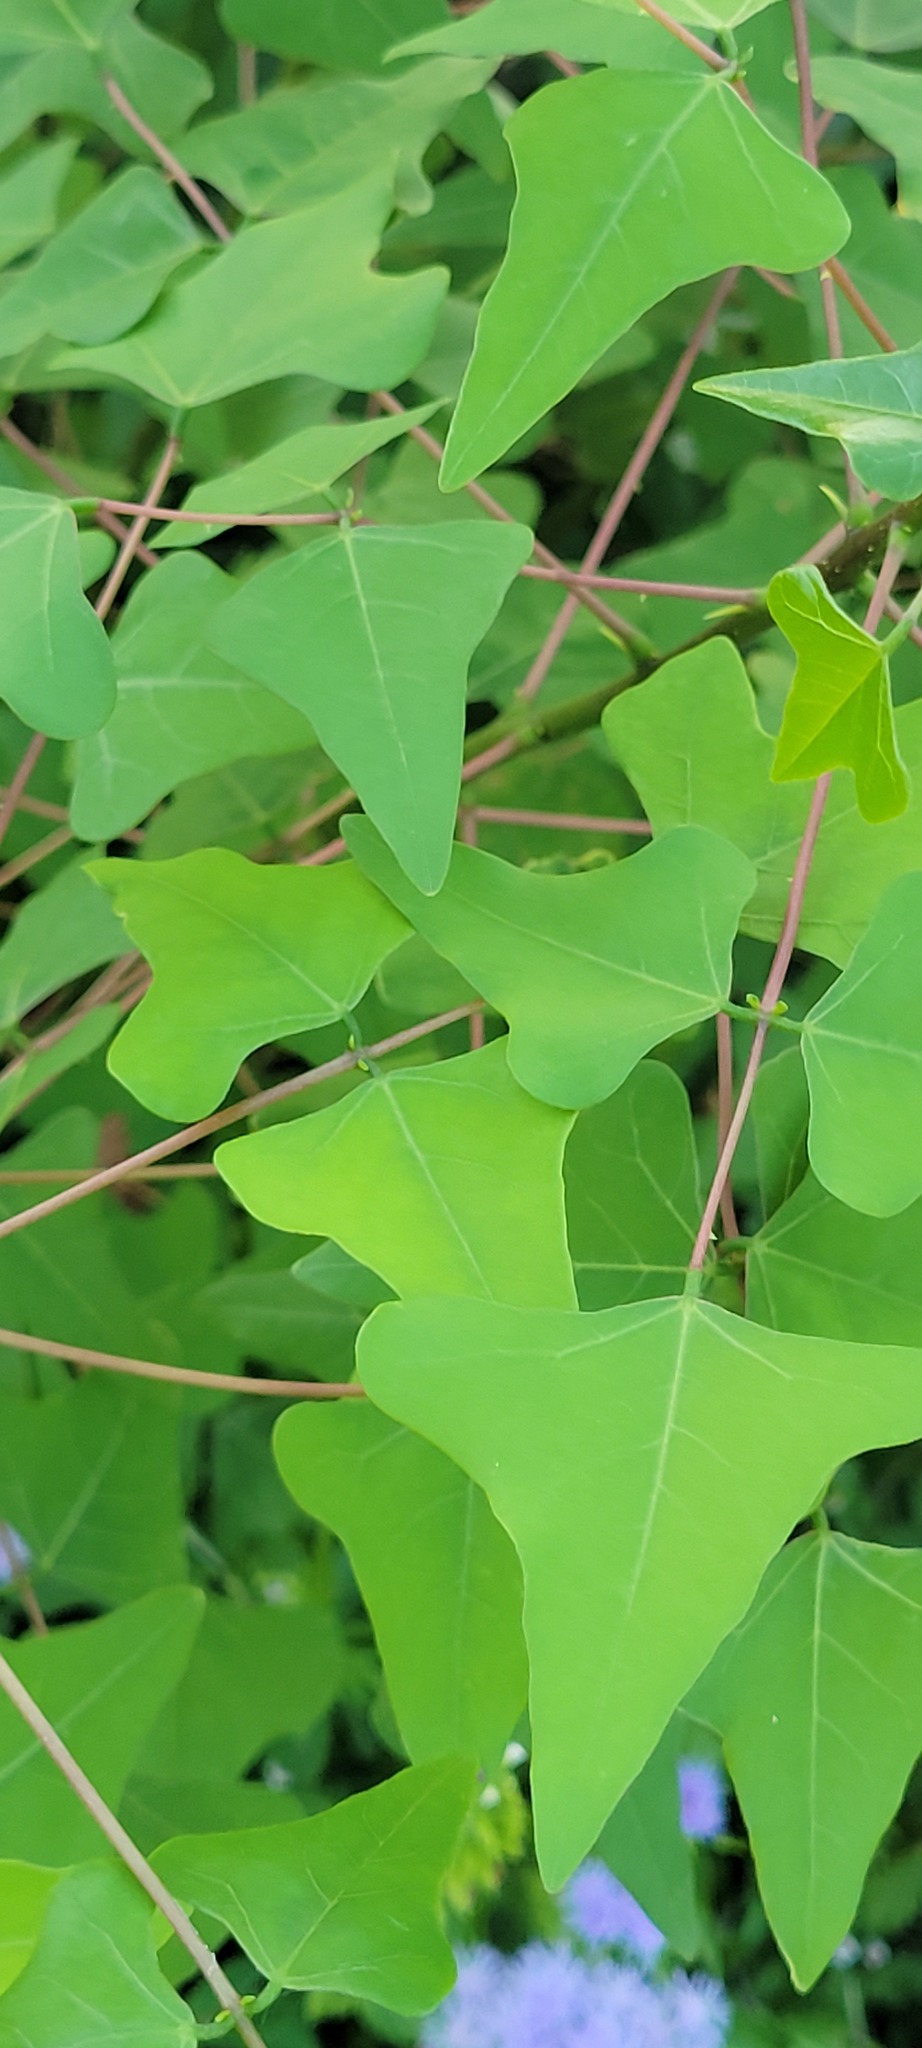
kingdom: Plantae
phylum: Tracheophyta
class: Magnoliopsida
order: Fabales
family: Fabaceae
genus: Erythrina
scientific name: Erythrina herbacea
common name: Coral-bean
